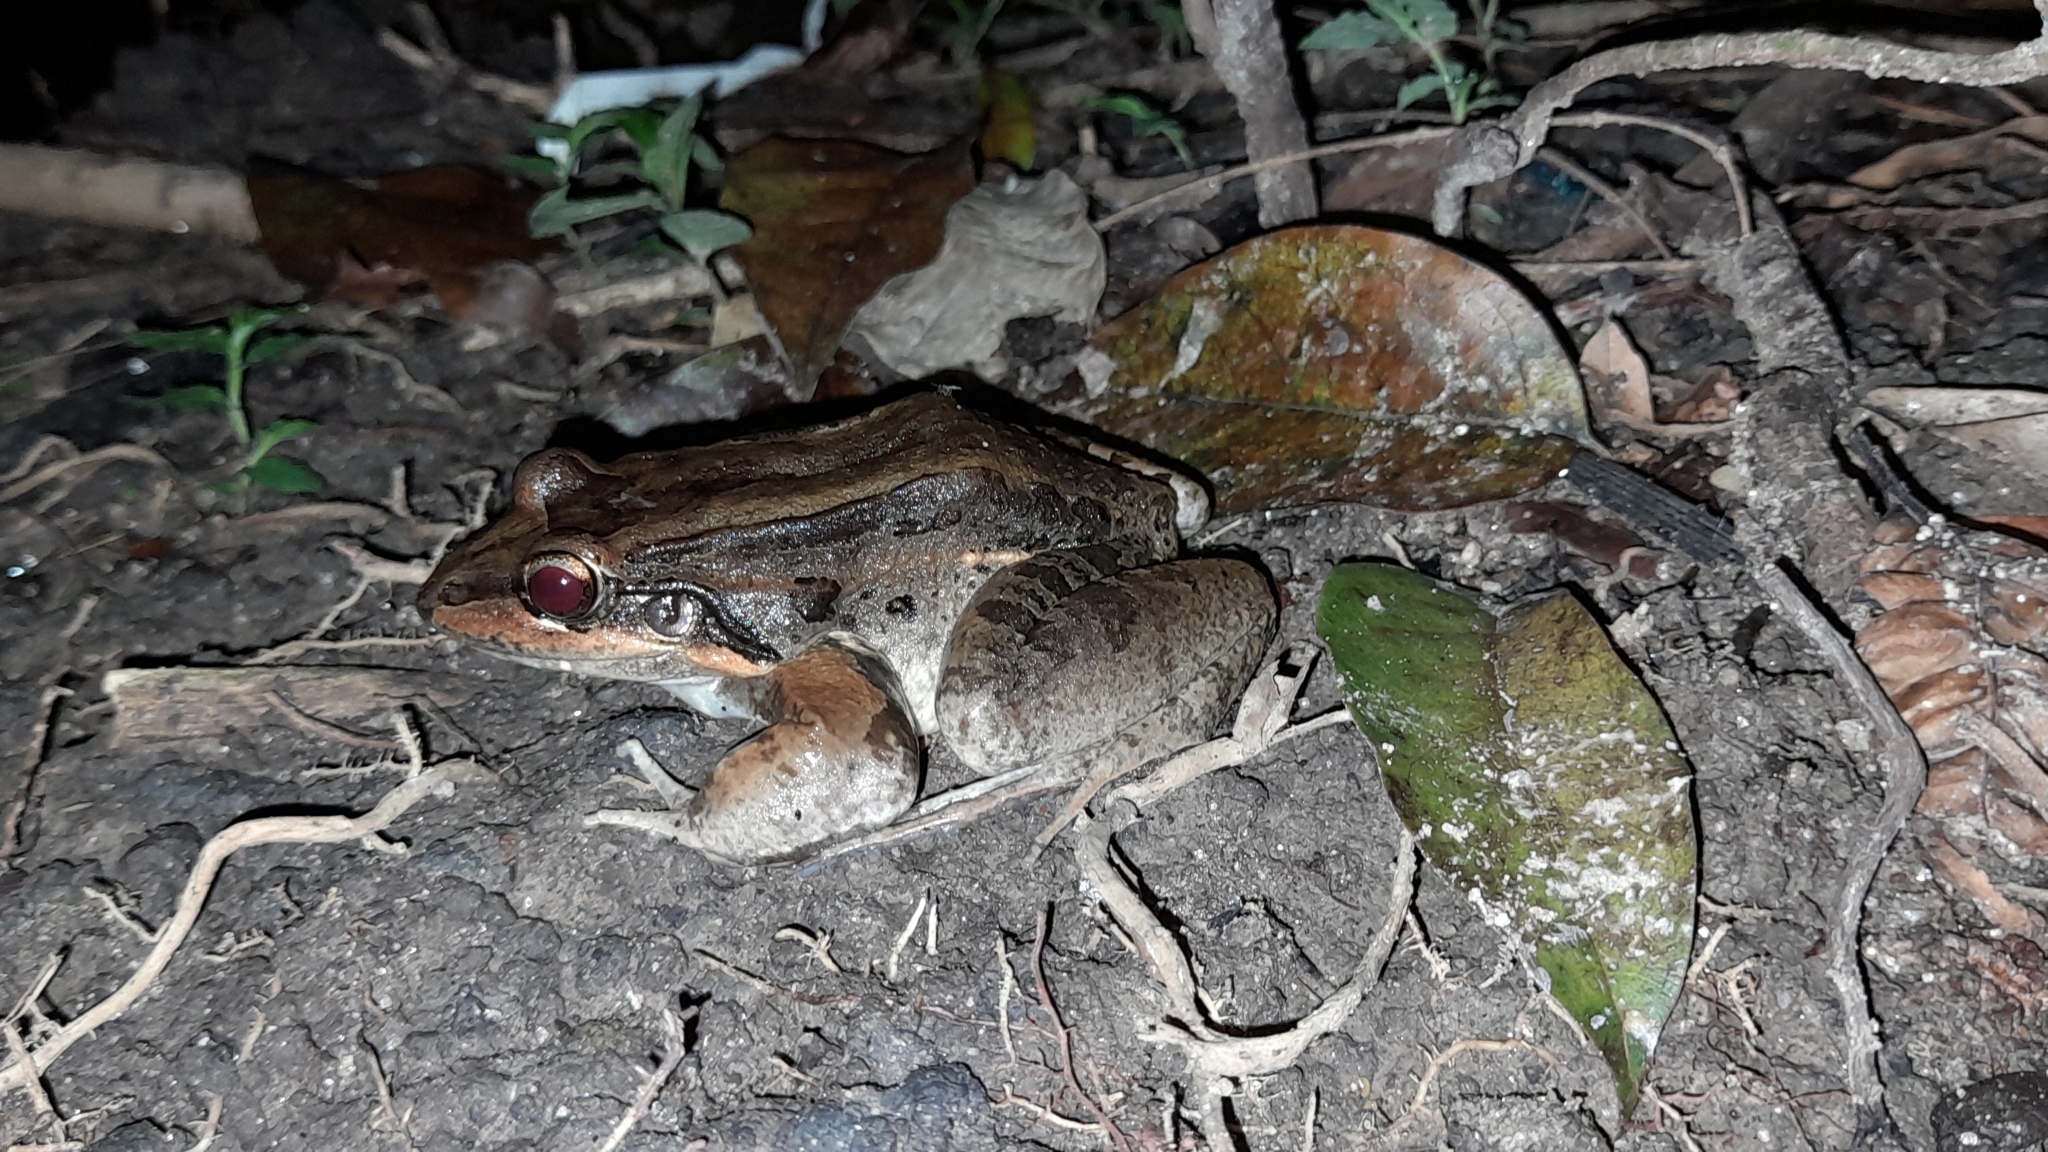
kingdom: Animalia
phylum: Chordata
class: Amphibia
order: Anura
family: Leptodactylidae
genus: Leptodactylus
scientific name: Leptodactylus insularum
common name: San miguel island frog
